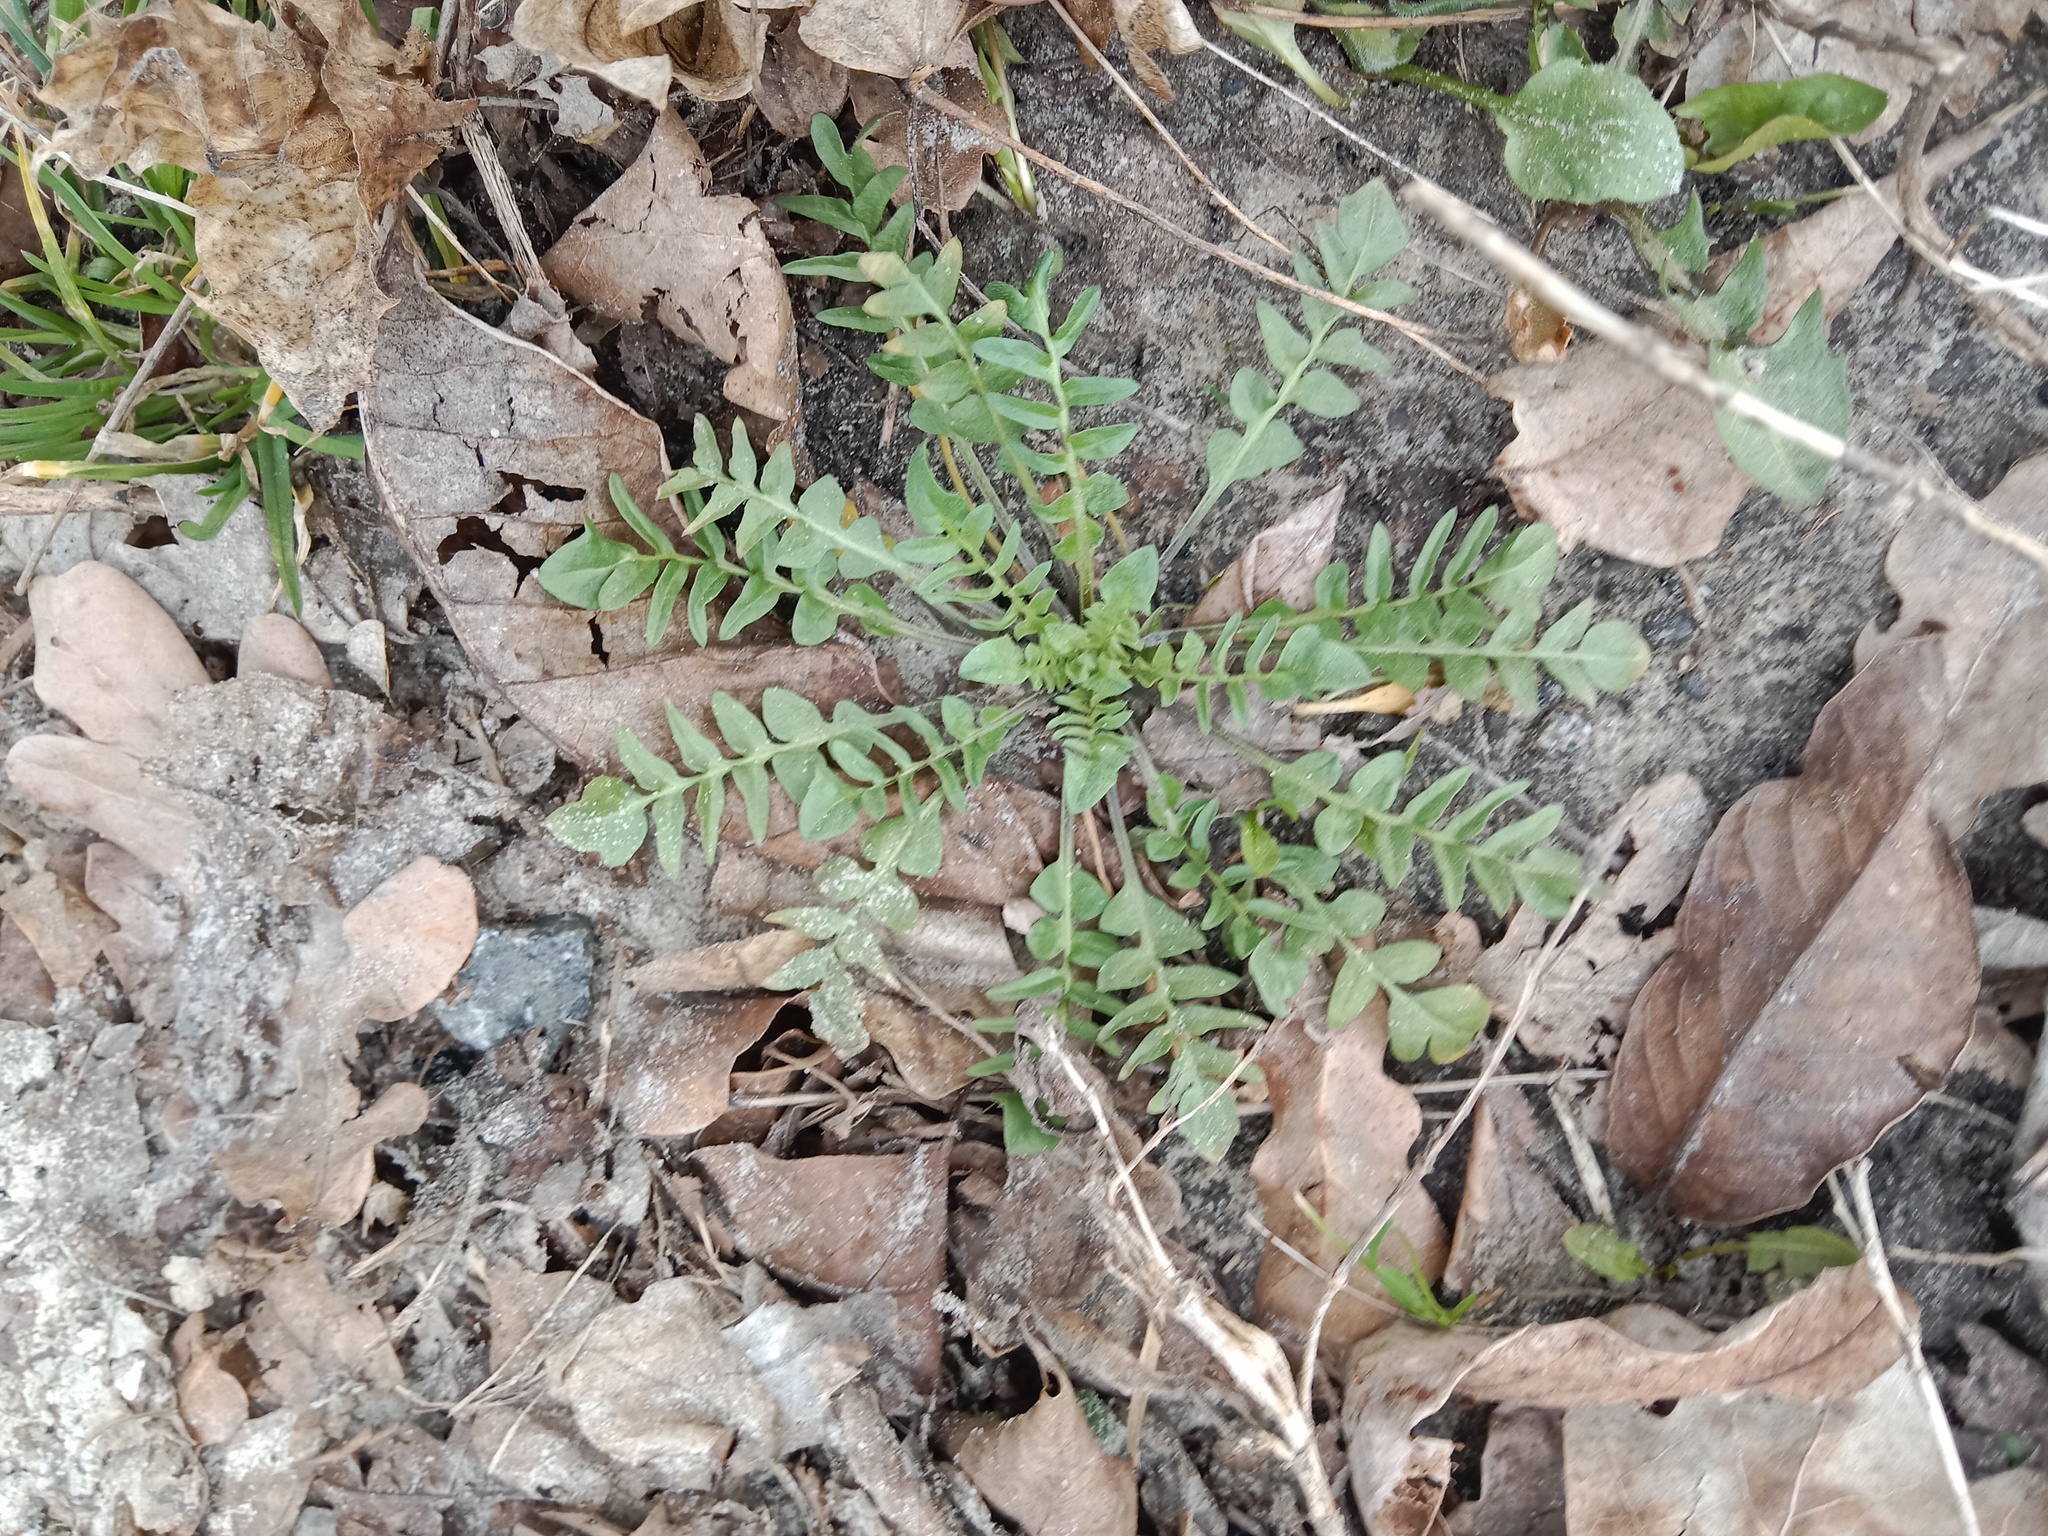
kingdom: Plantae
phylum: Tracheophyta
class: Magnoliopsida
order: Brassicales
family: Brassicaceae
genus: Capsella
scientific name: Capsella bursa-pastoris
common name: Shepherd's purse
